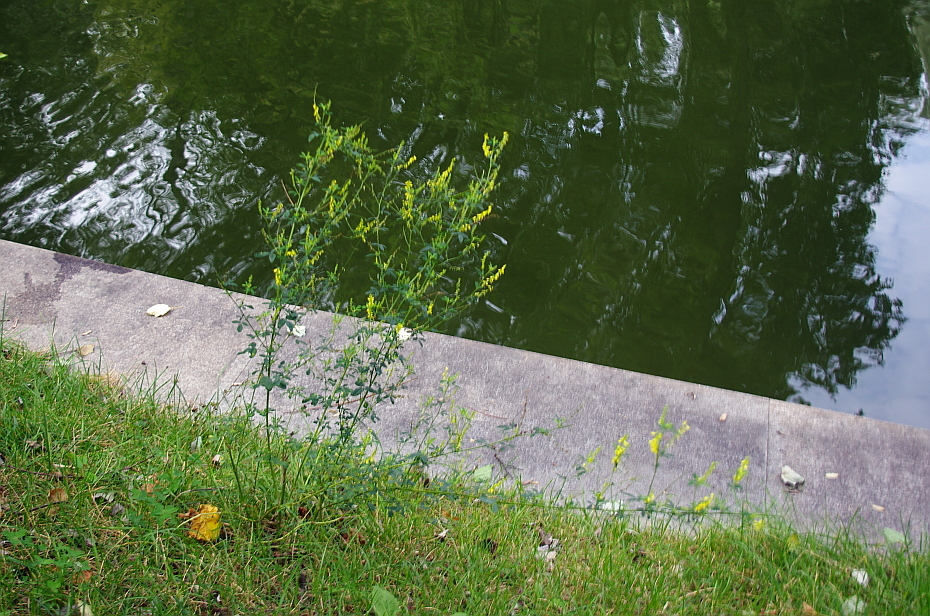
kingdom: Plantae
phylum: Tracheophyta
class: Magnoliopsida
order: Fabales
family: Fabaceae
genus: Melilotus
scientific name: Melilotus officinalis
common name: Sweetclover
